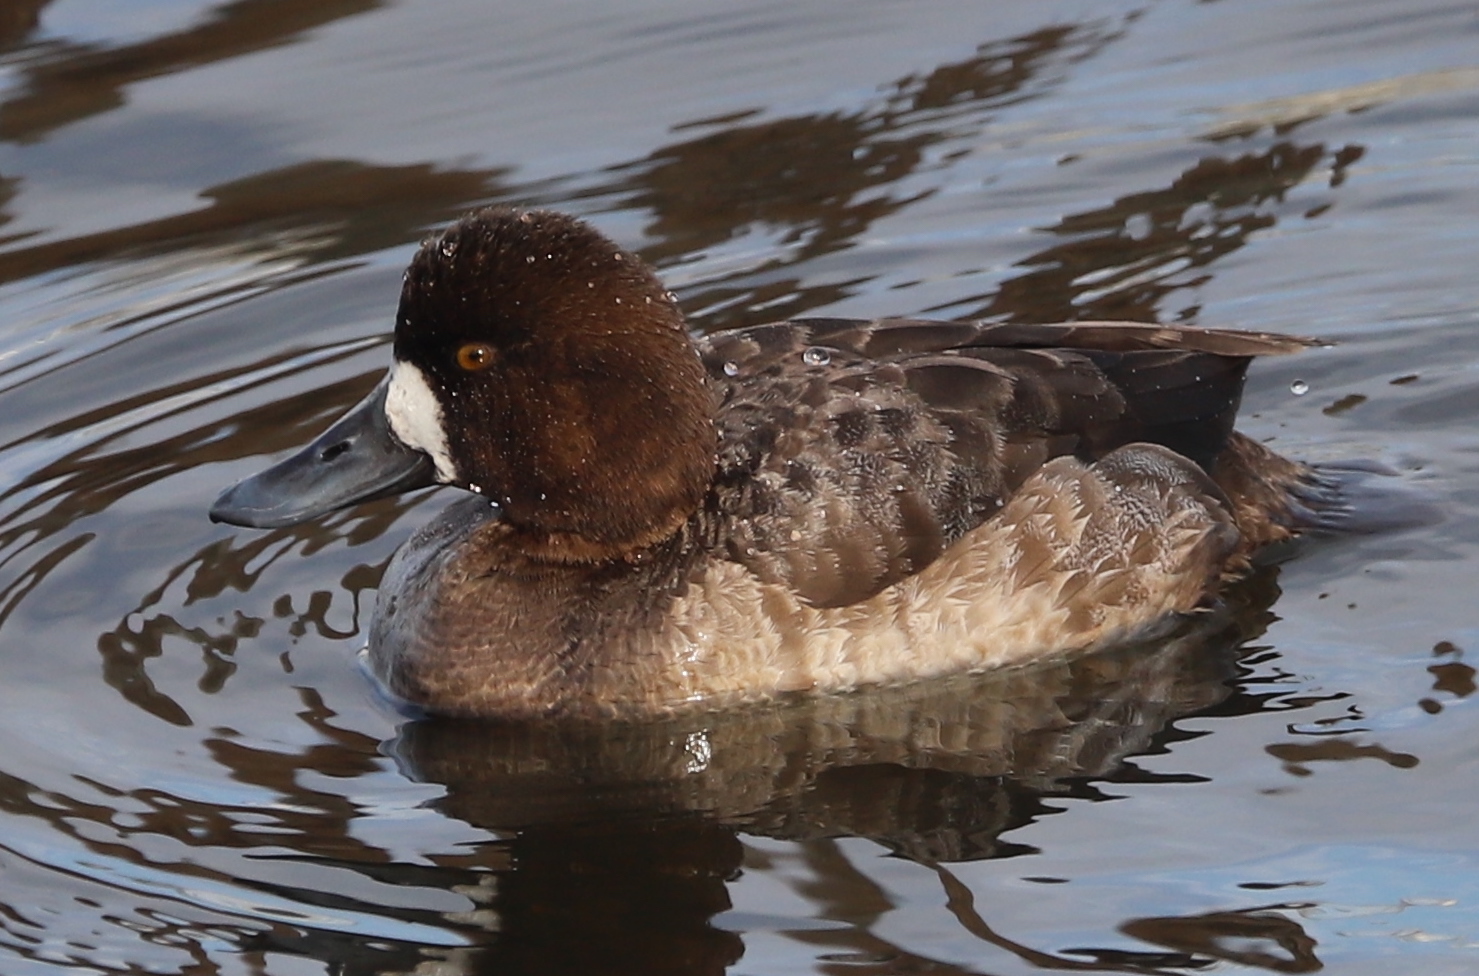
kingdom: Animalia
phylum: Chordata
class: Aves
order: Anseriformes
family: Anatidae
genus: Aythya
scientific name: Aythya affinis
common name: Lesser scaup
